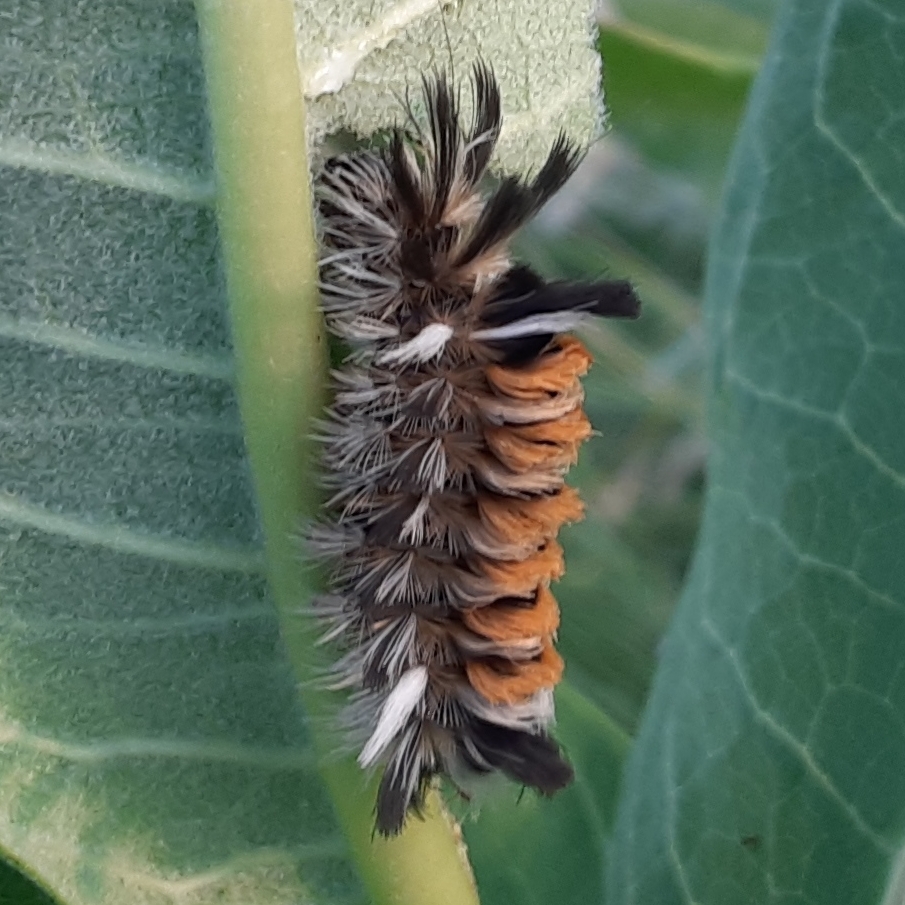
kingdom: Animalia
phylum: Arthropoda
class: Insecta
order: Lepidoptera
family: Erebidae
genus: Euchaetes
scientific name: Euchaetes egle
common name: Milkweed tussock moth
